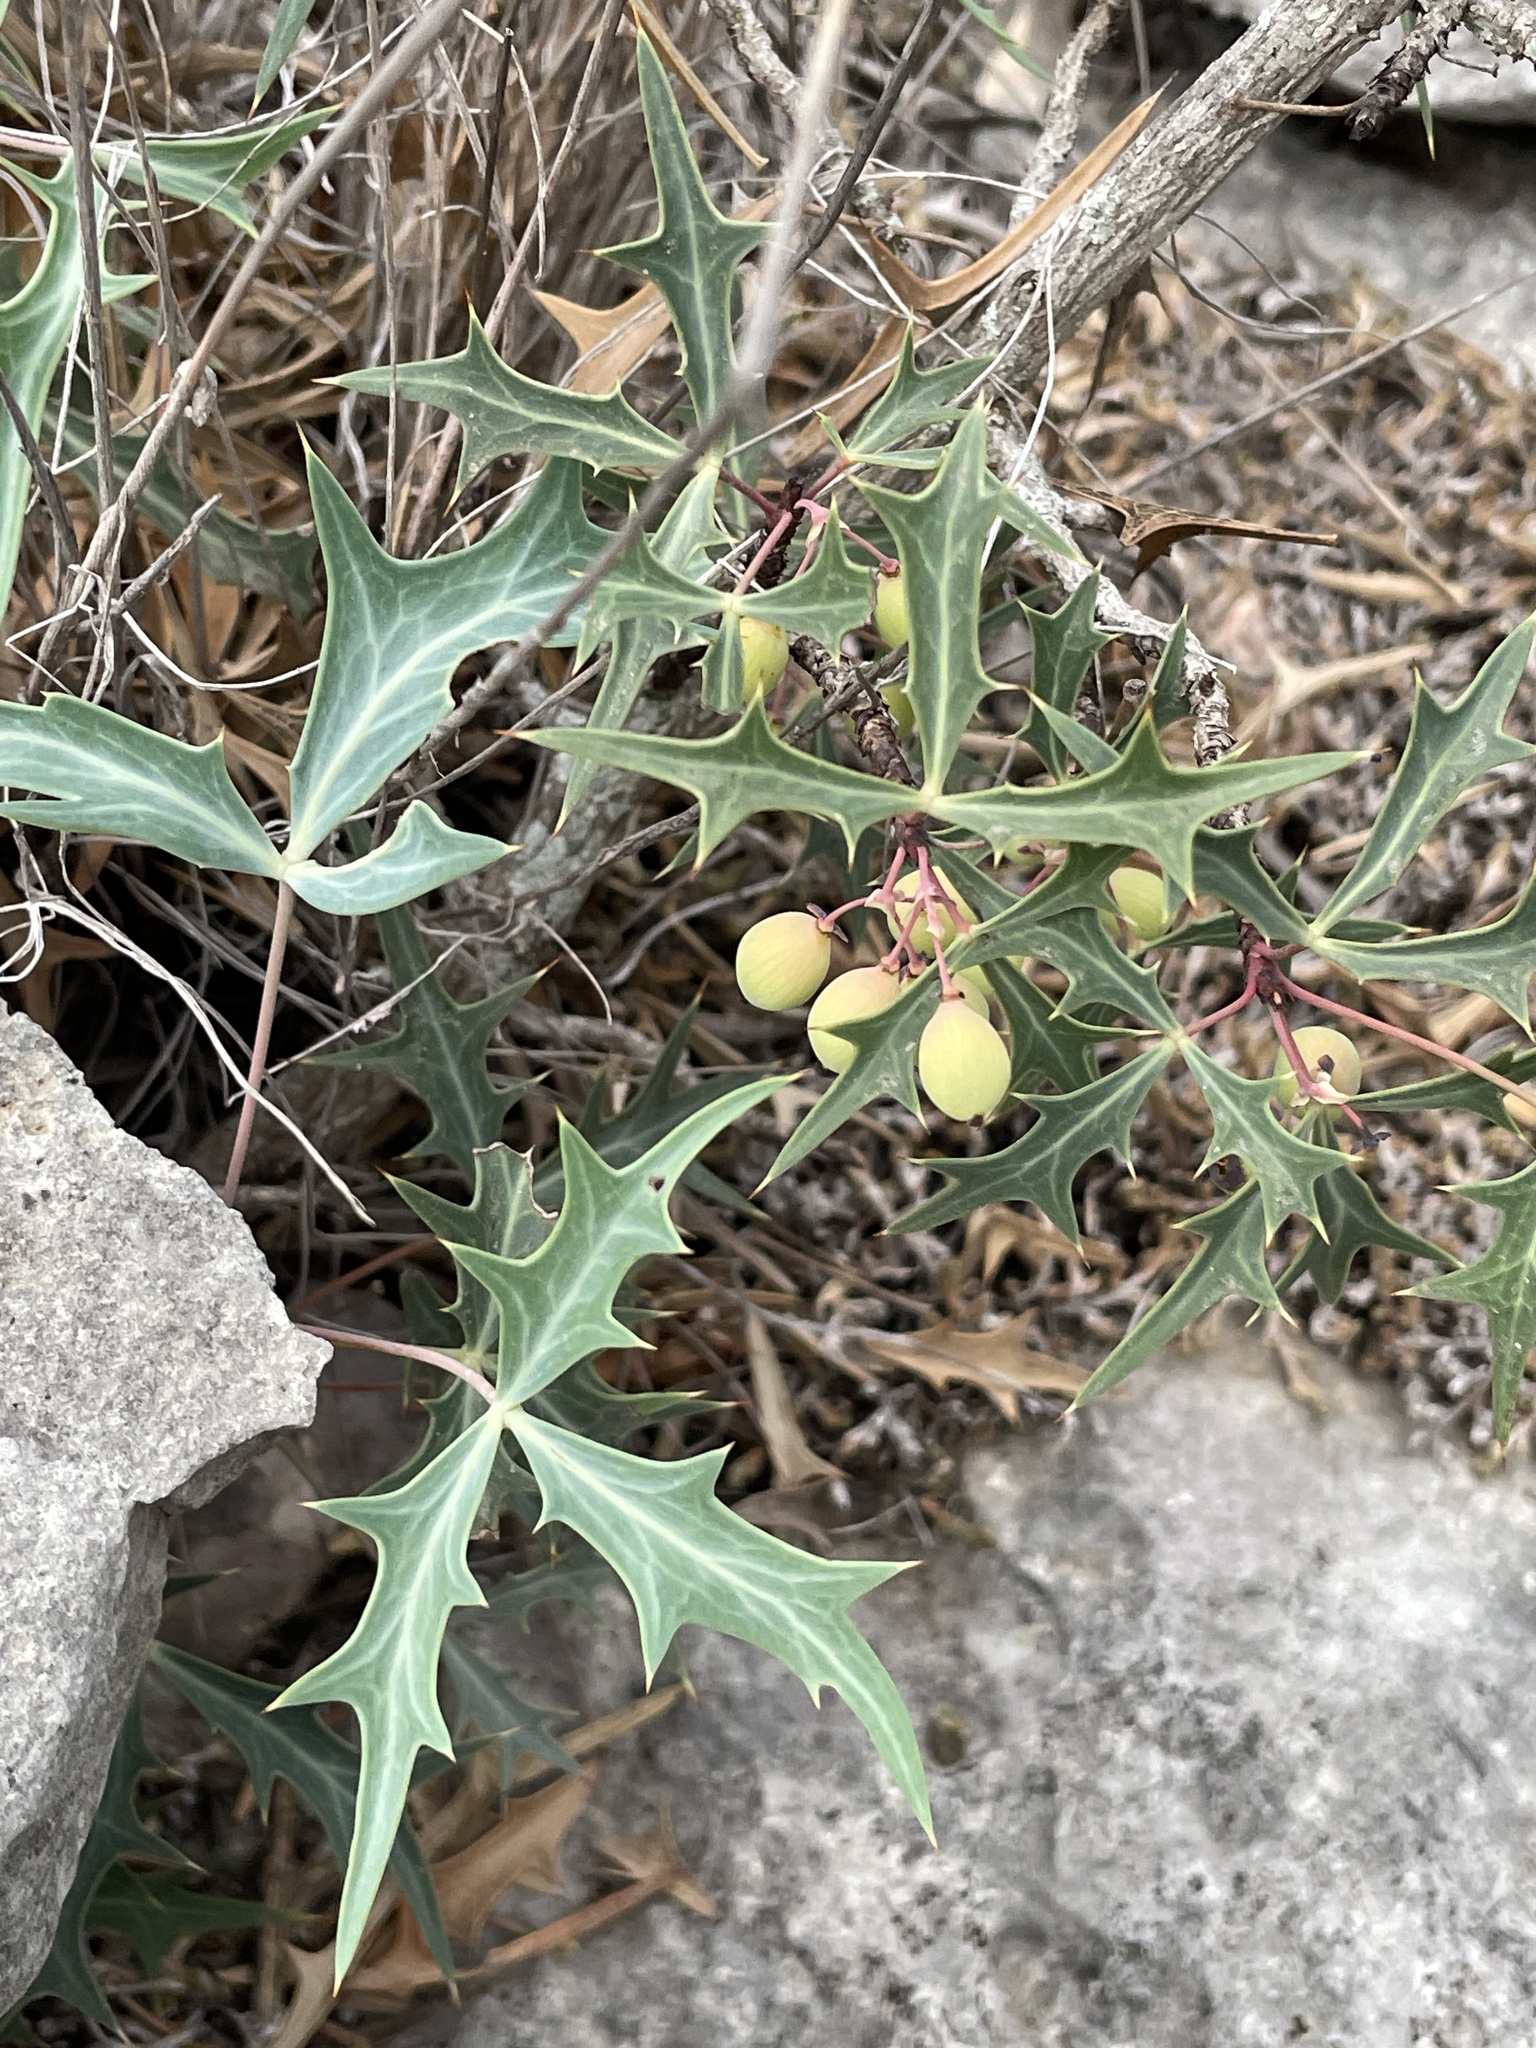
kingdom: Plantae
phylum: Tracheophyta
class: Magnoliopsida
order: Ranunculales
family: Berberidaceae
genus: Alloberberis
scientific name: Alloberberis trifoliolata
